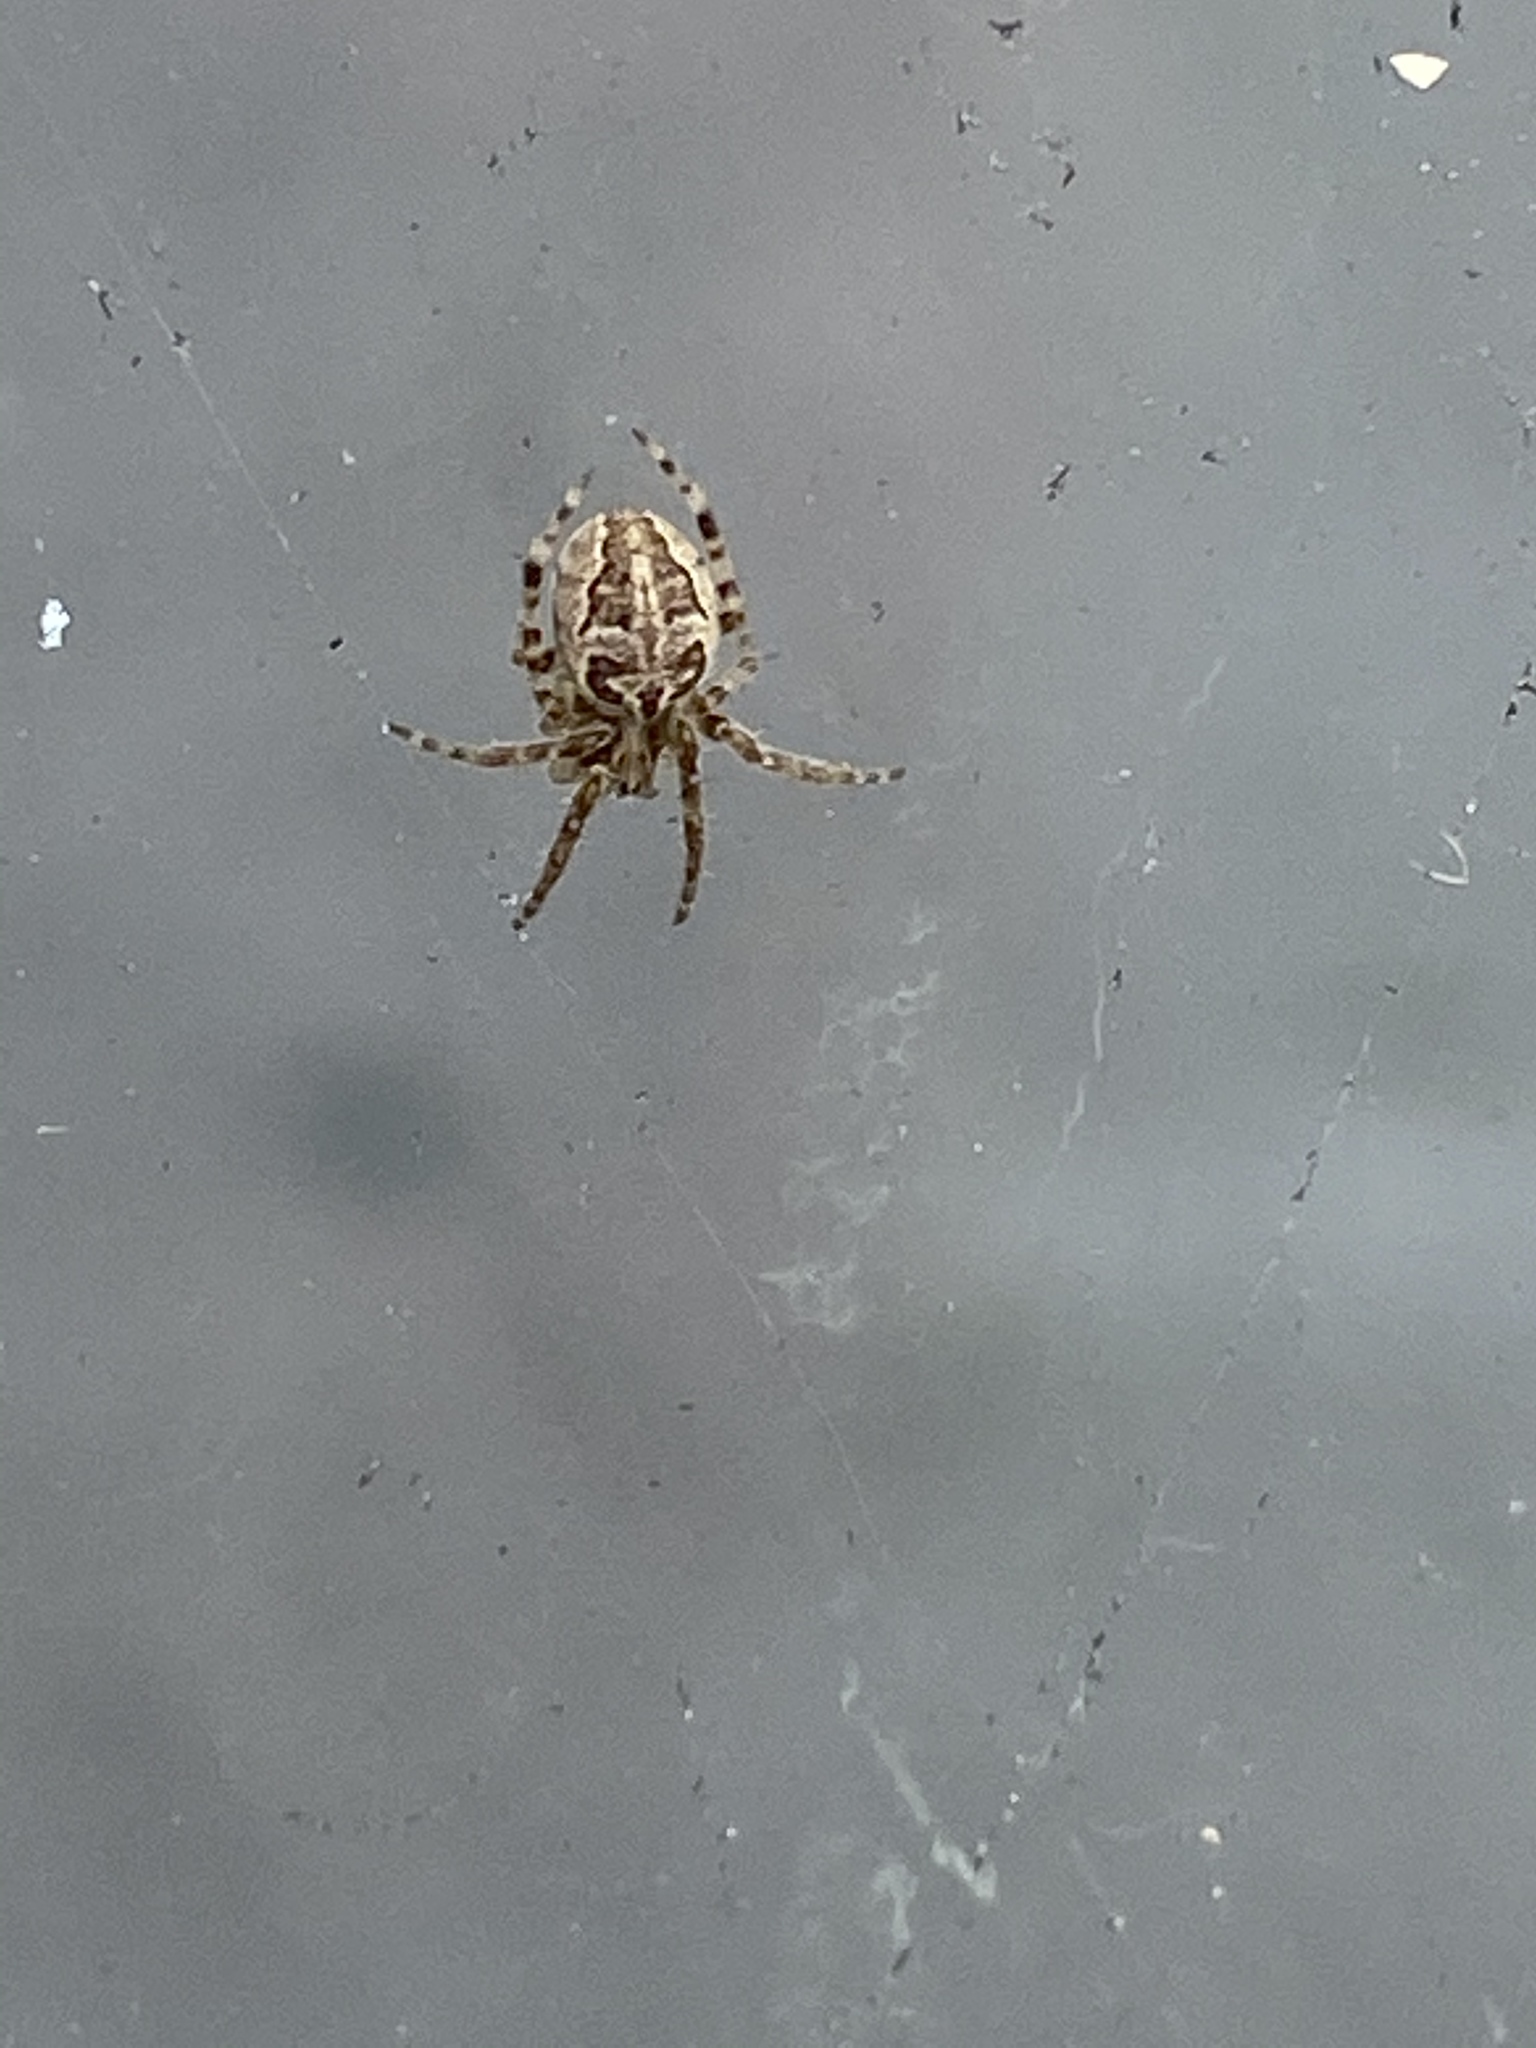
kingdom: Animalia
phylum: Arthropoda
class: Arachnida
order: Araneae
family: Araneidae
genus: Larinioides
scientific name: Larinioides sclopetarius
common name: Bridge orbweaver
